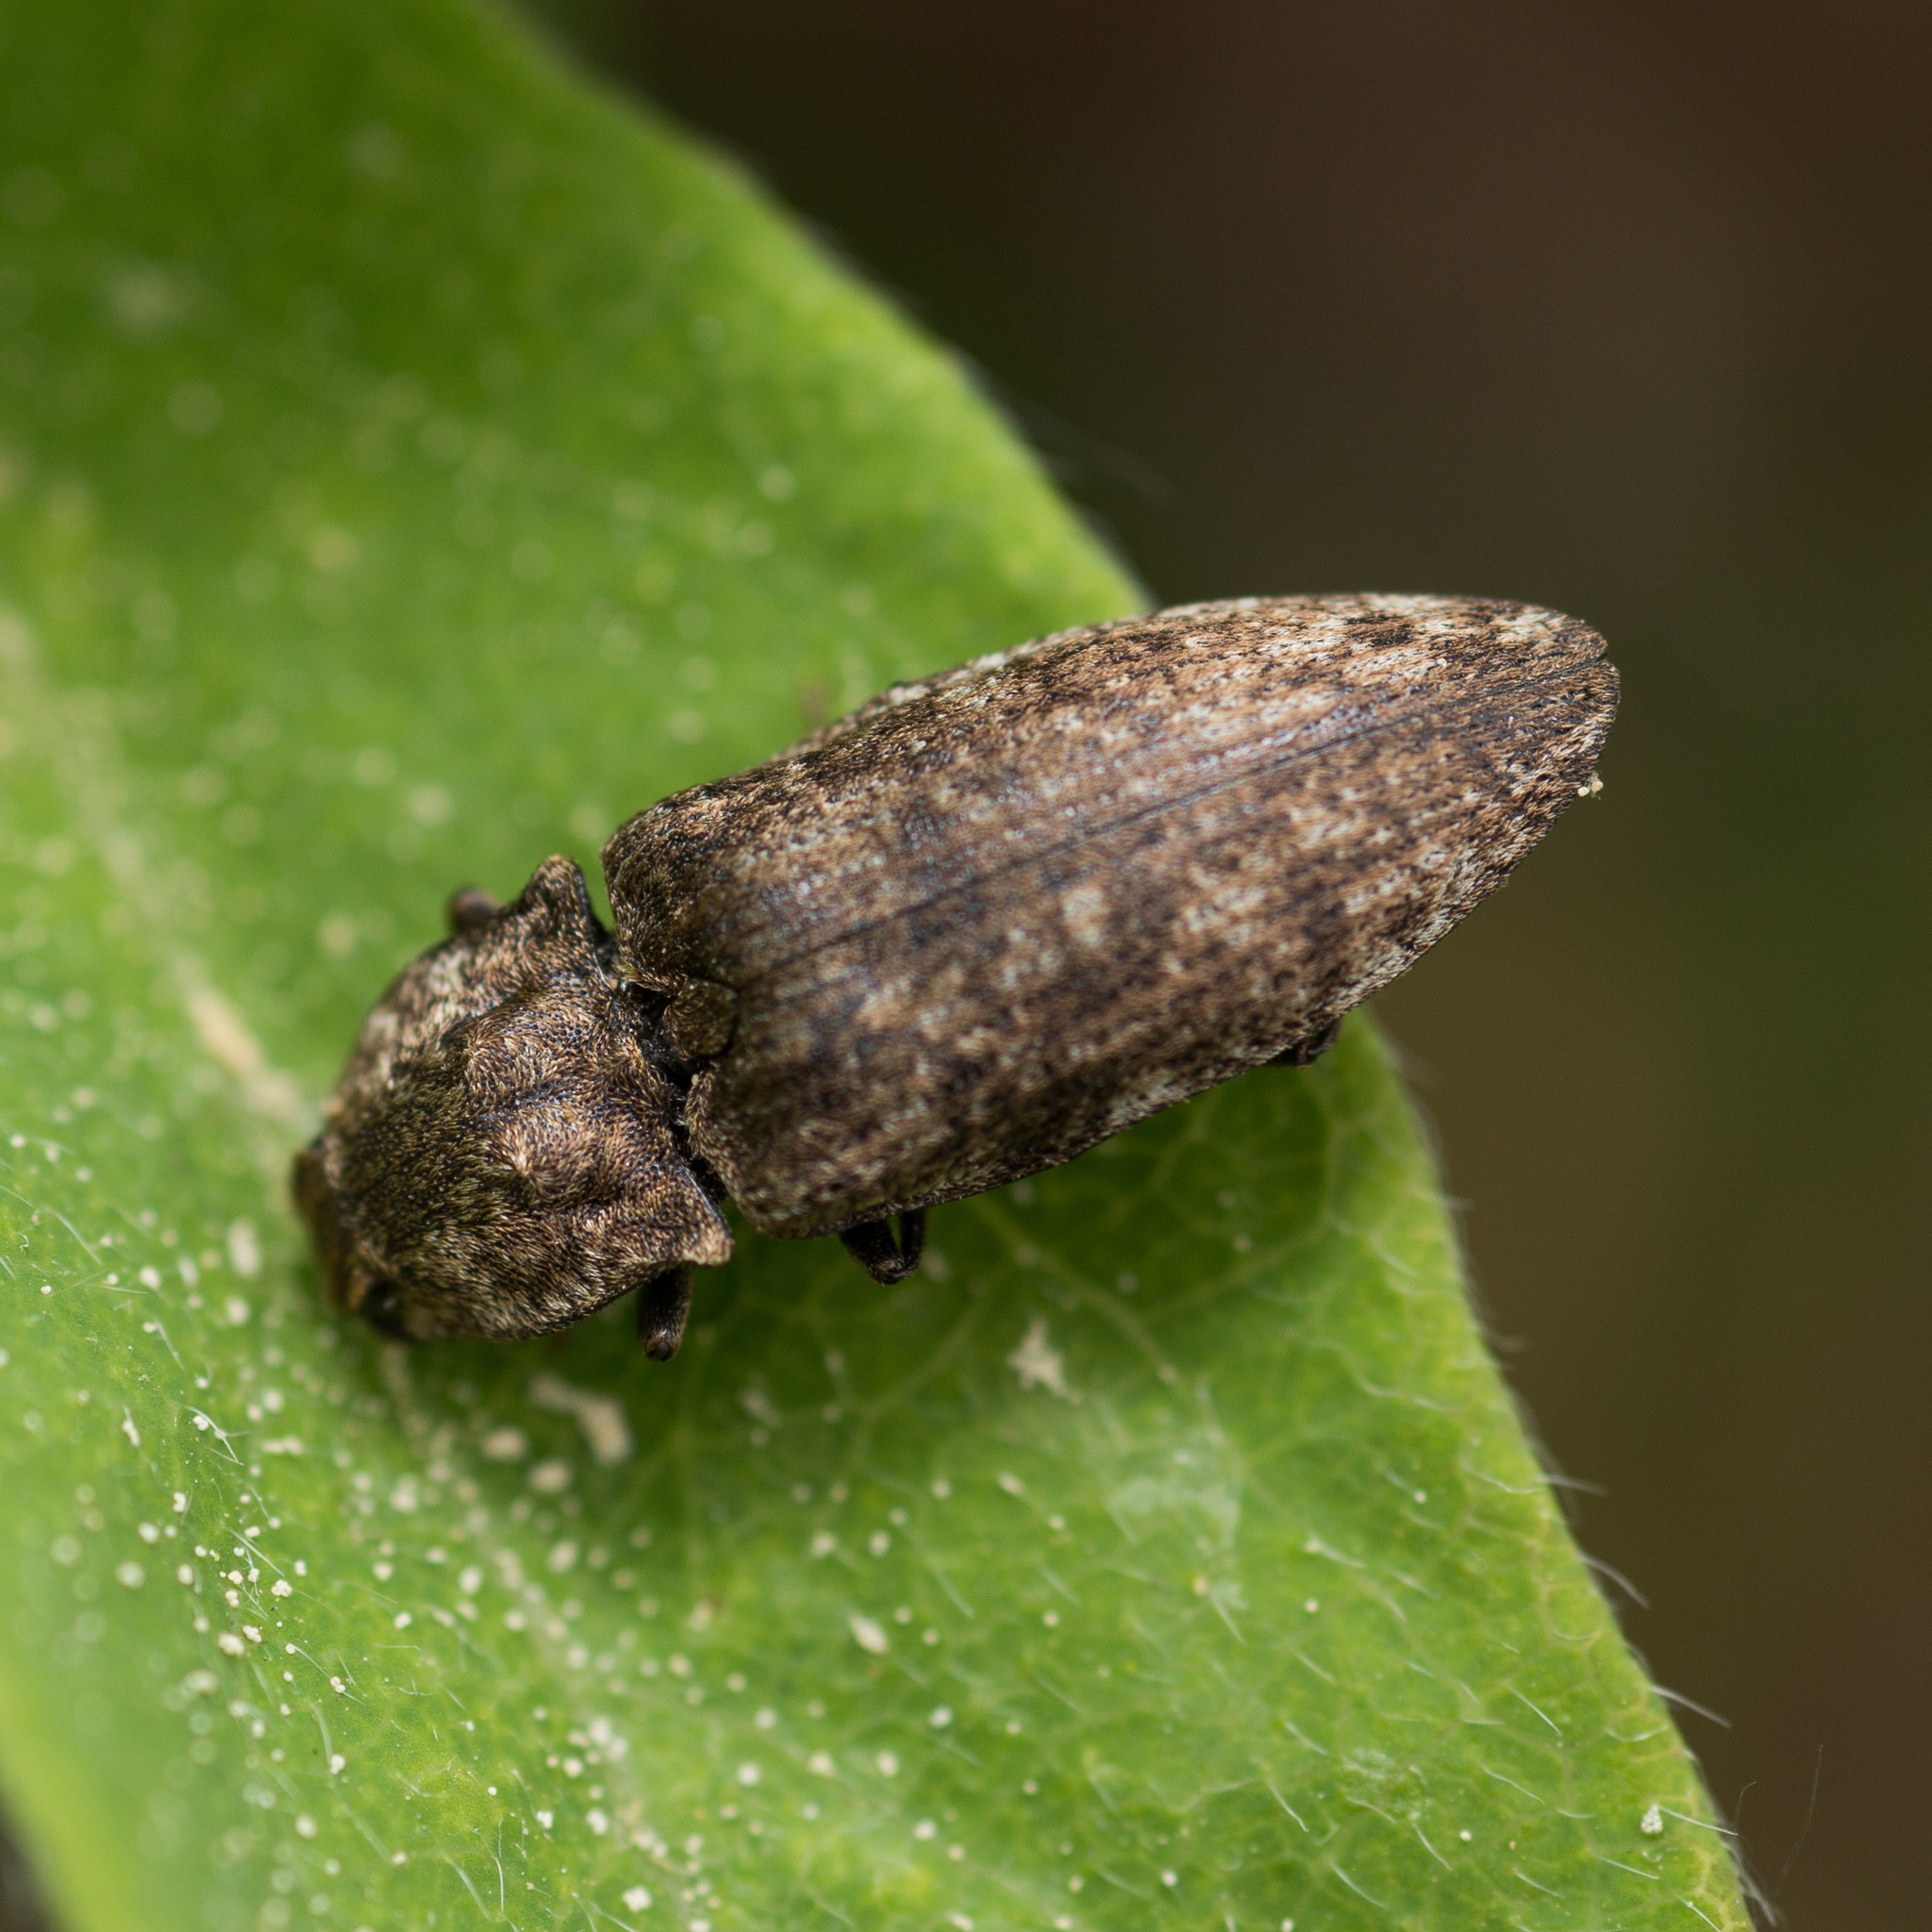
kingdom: Animalia
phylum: Arthropoda
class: Insecta
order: Coleoptera
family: Elateridae
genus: Agrypnus
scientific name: Agrypnus murinus
